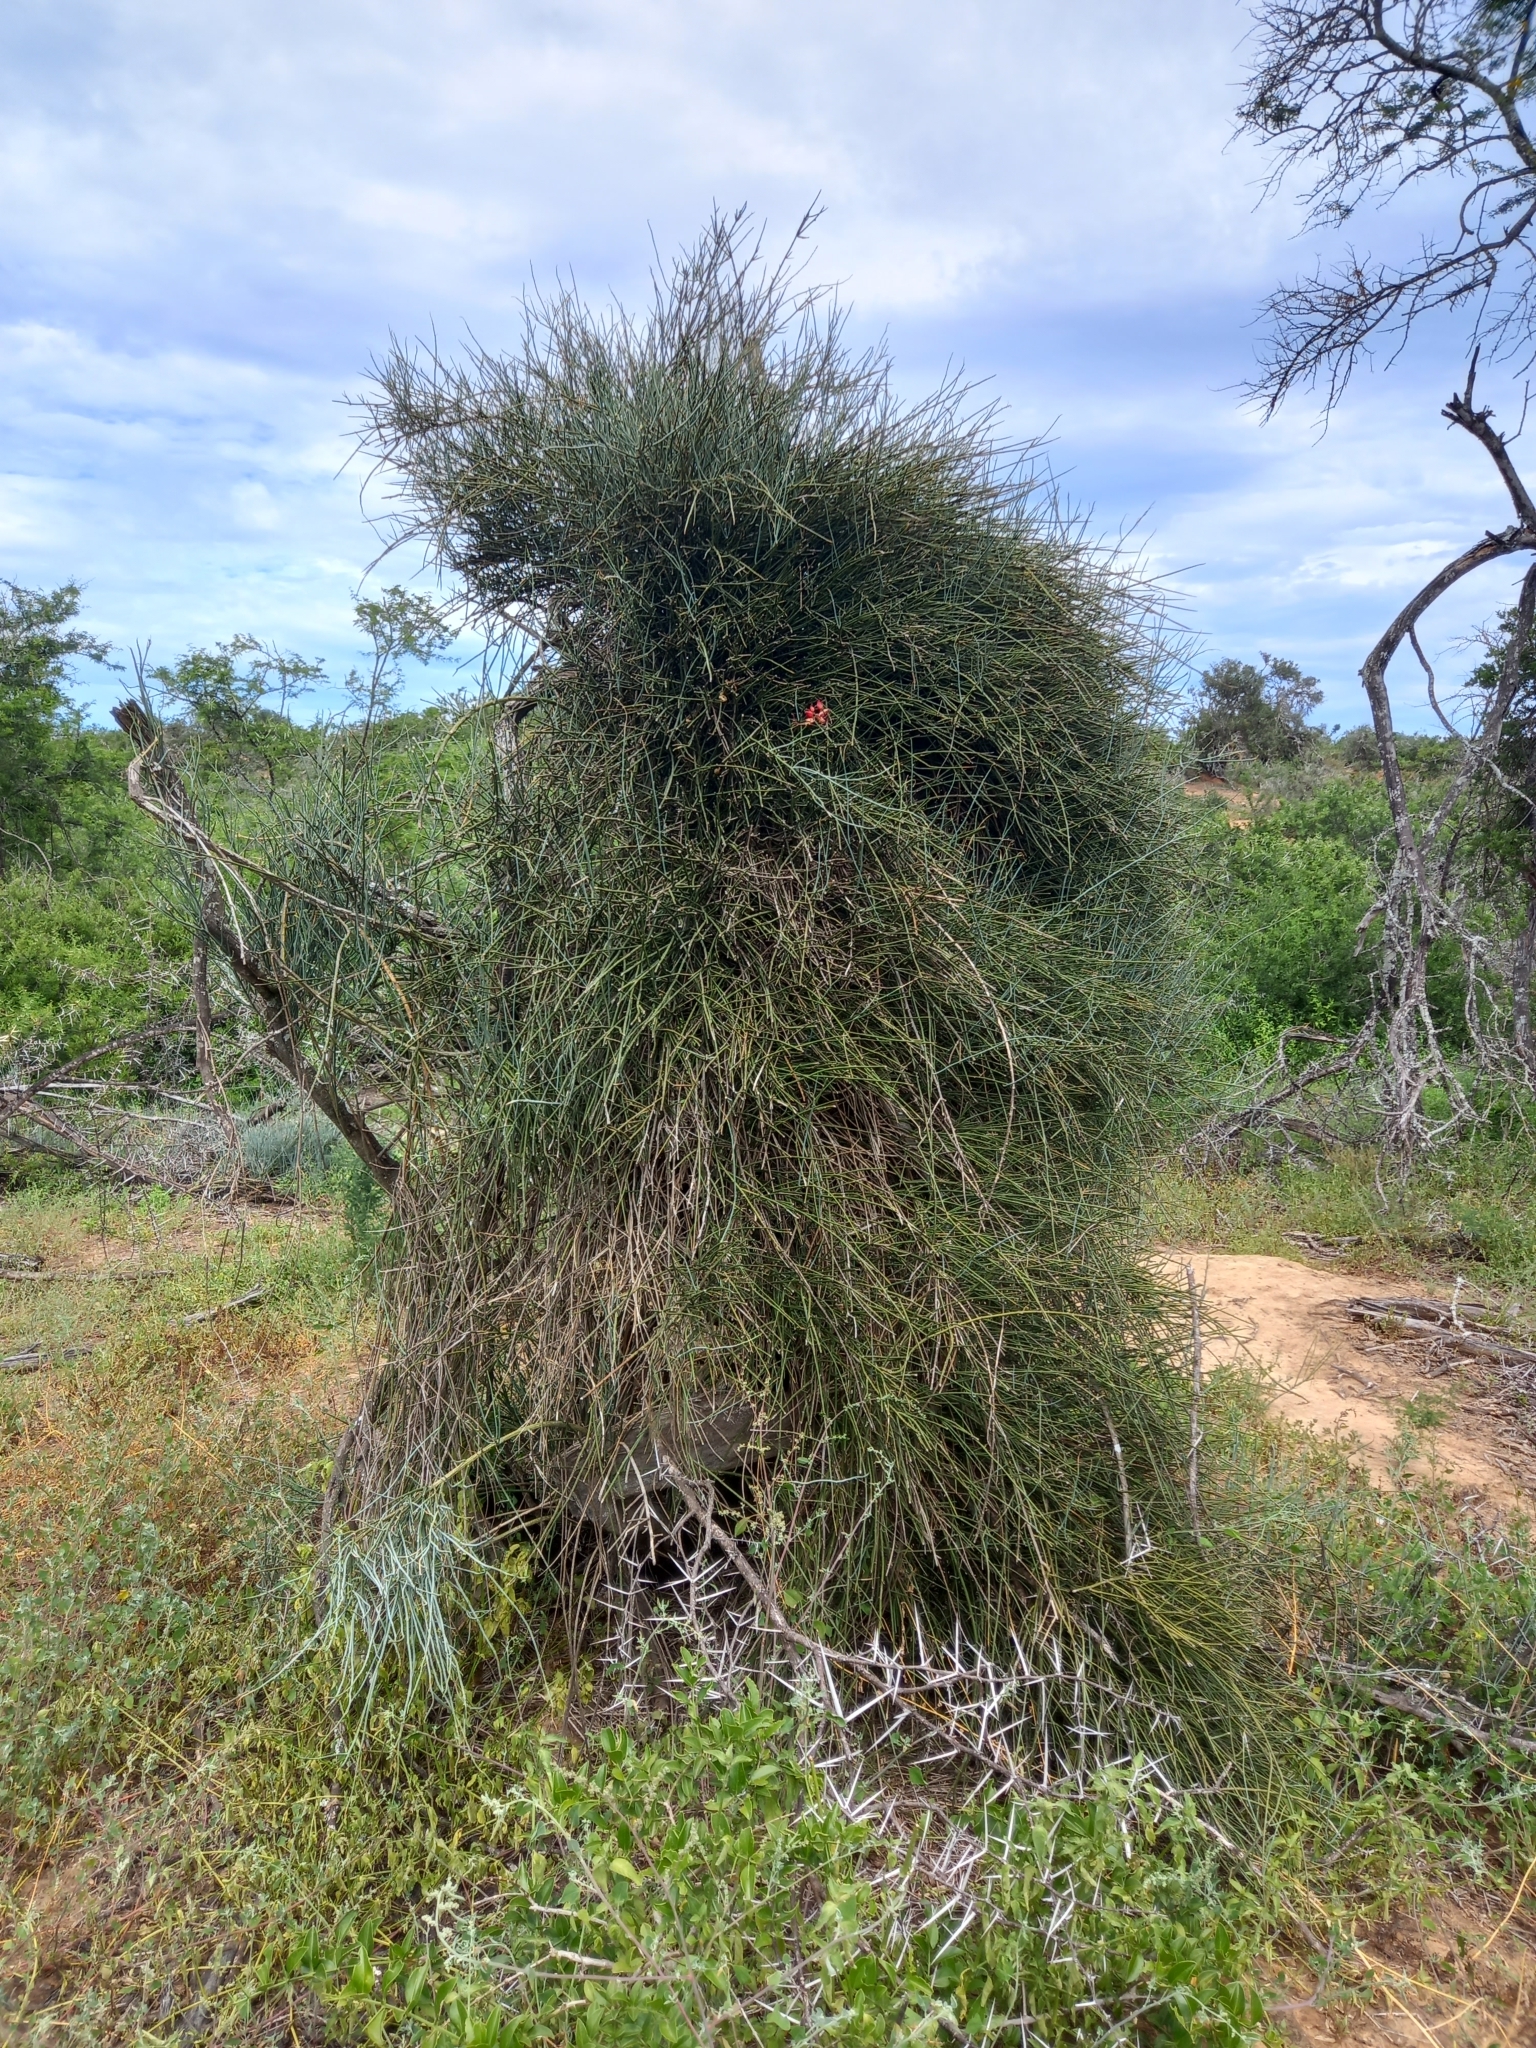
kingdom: Plantae
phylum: Tracheophyta
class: Magnoliopsida
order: Brassicales
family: Capparaceae
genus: Cadaba
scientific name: Cadaba aphylla
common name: Black storm
